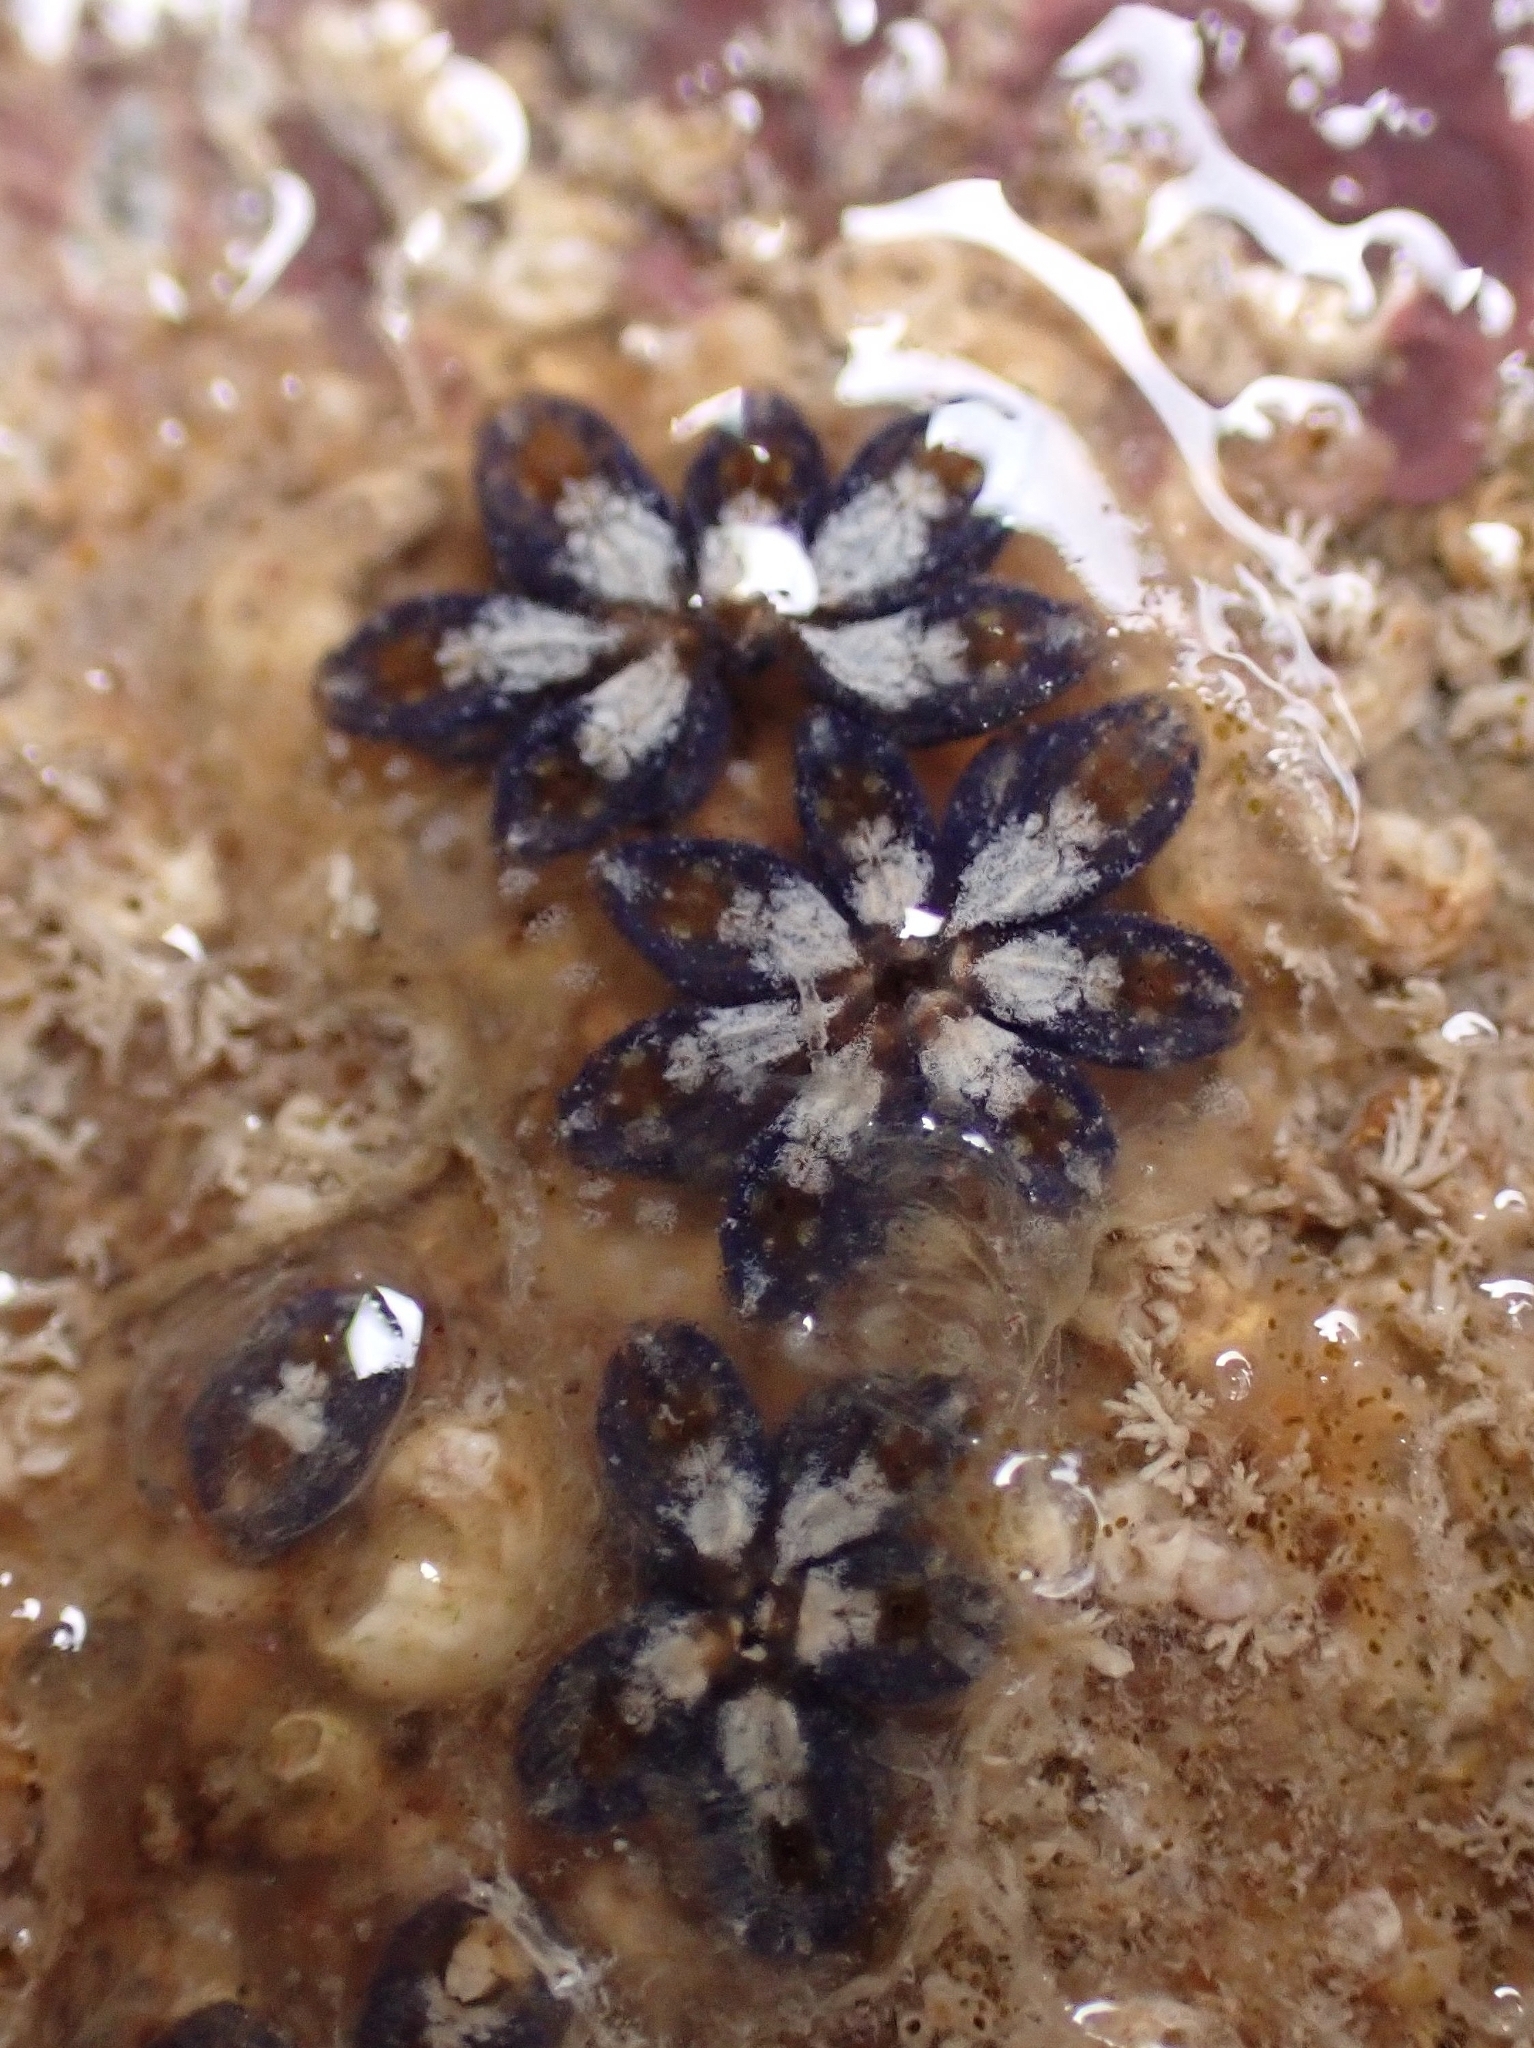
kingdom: Animalia
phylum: Chordata
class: Ascidiacea
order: Stolidobranchia
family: Styelidae
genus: Botryllus
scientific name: Botryllus schlosseri
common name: Golden star tunicate
